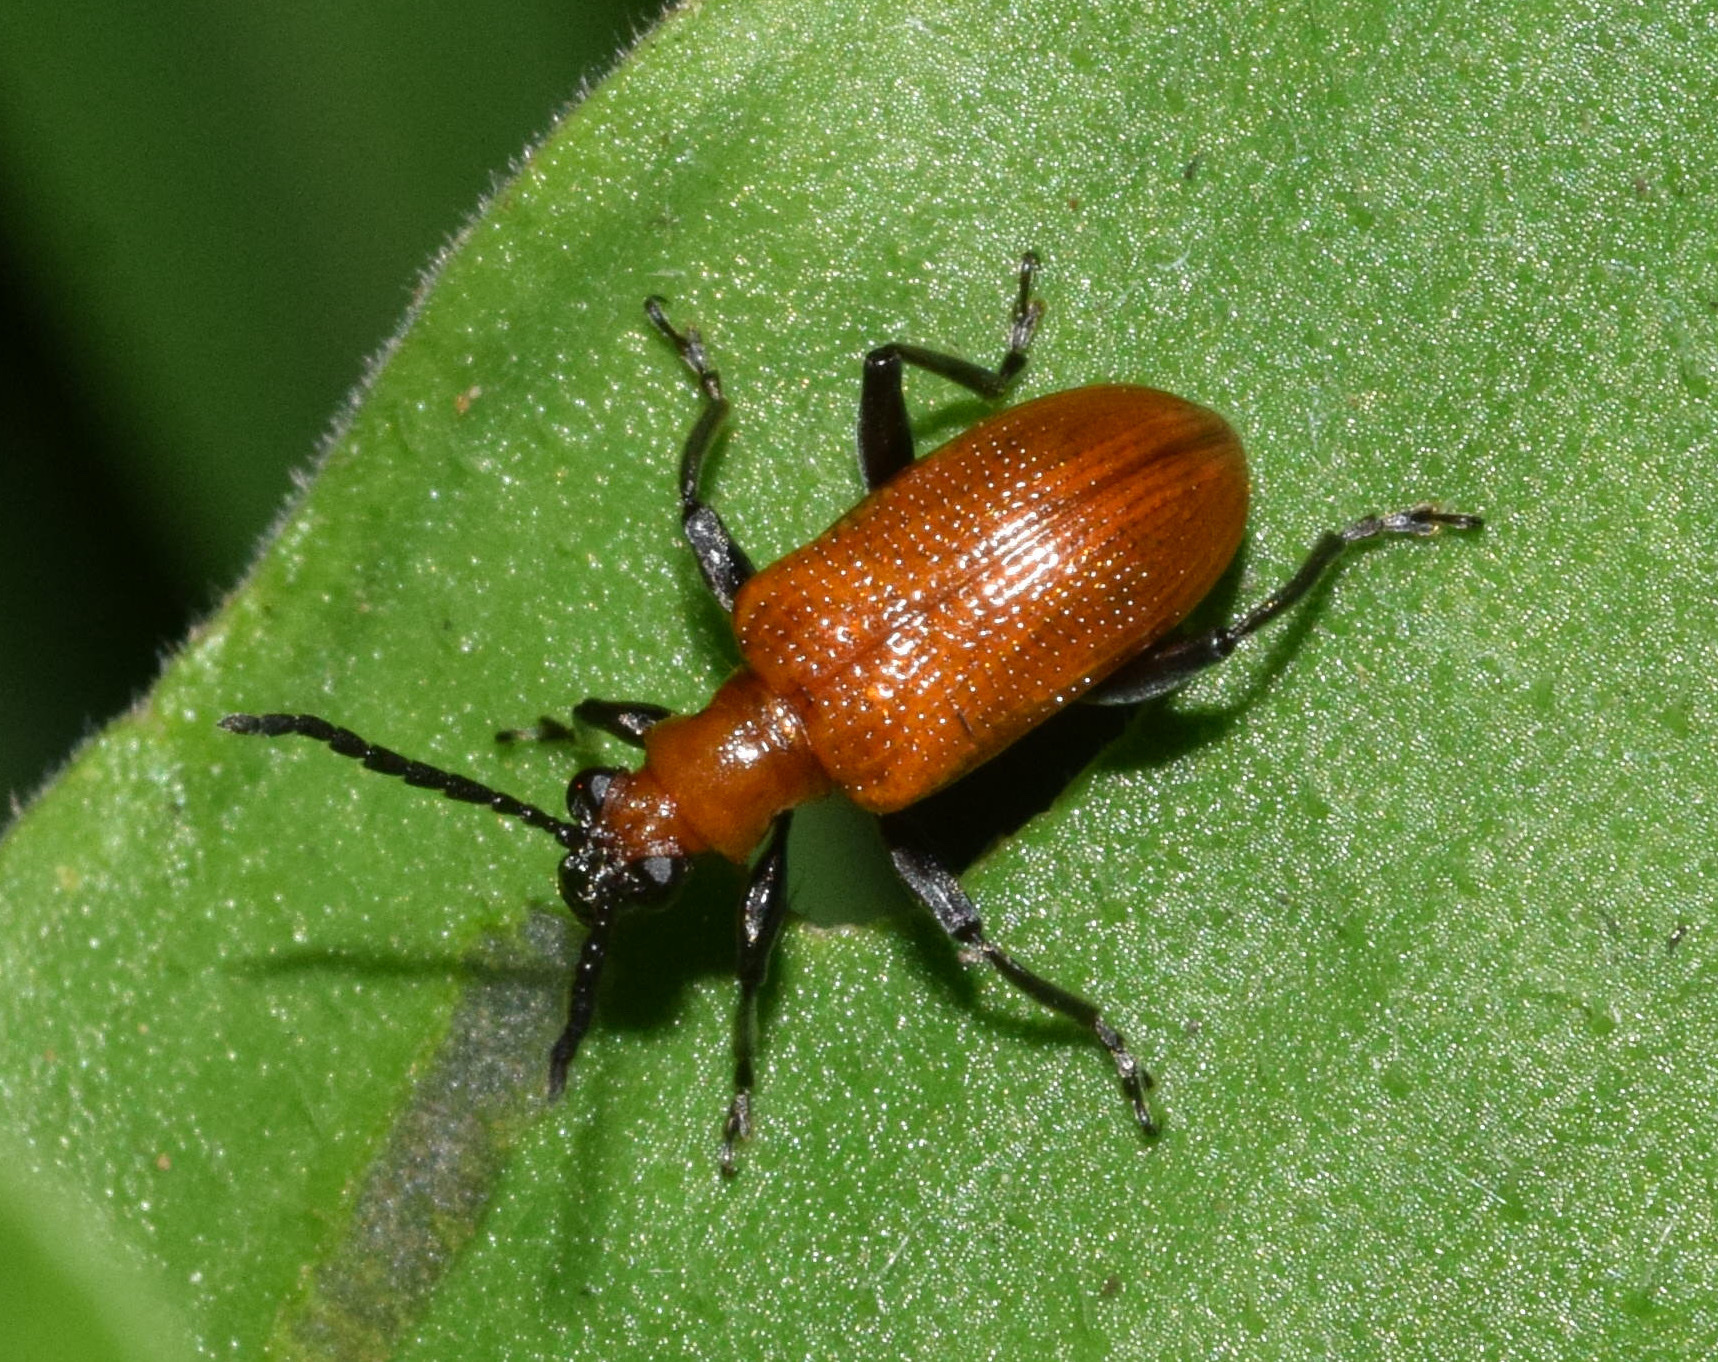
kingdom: Animalia
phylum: Arthropoda
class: Insecta
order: Coleoptera
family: Chrysomelidae
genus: Lema
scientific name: Lema
